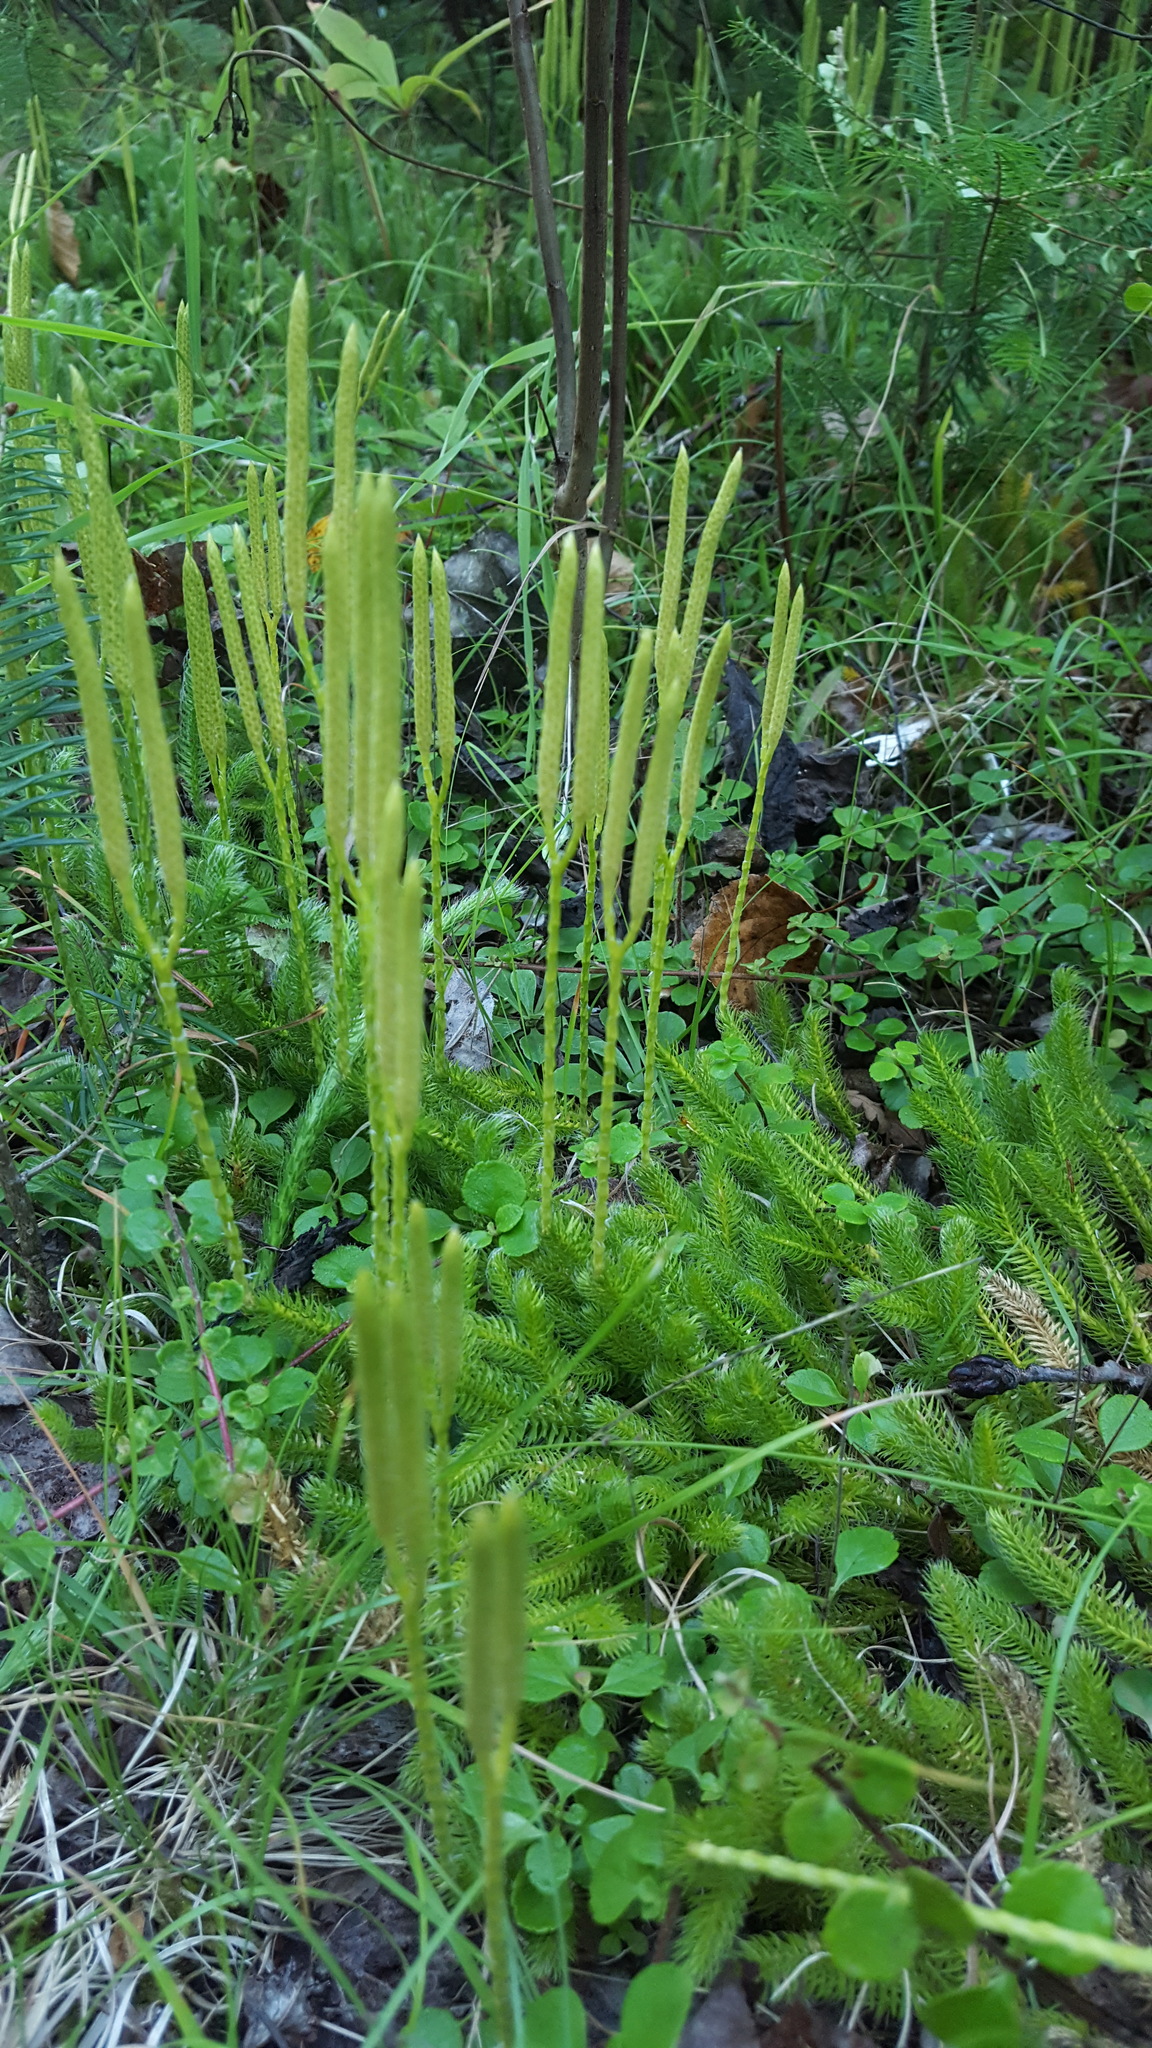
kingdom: Plantae
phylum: Tracheophyta
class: Lycopodiopsida
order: Lycopodiales
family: Lycopodiaceae
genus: Lycopodium
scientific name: Lycopodium clavatum
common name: Stag's-horn clubmoss
